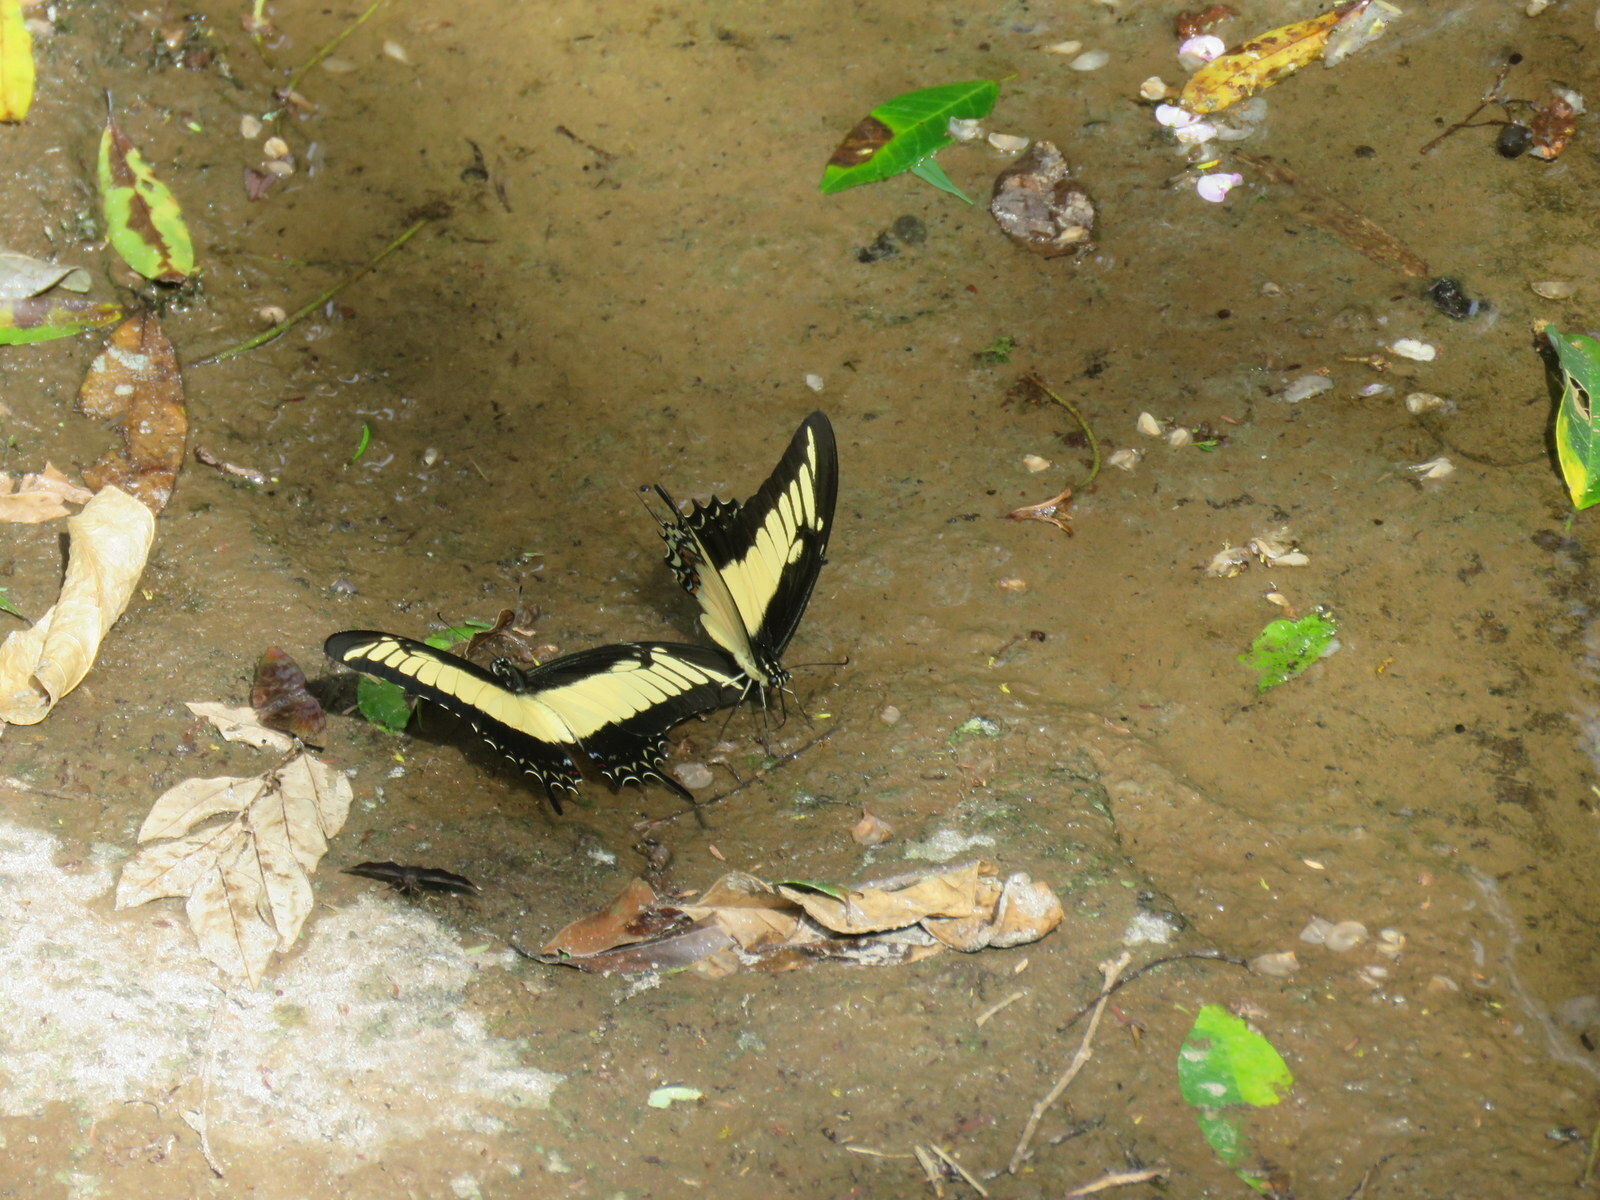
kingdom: Animalia
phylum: Arthropoda
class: Insecta
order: Lepidoptera
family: Papilionidae
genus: Papilio
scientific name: Papilio androgeus
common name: Androgeus swallowtail
